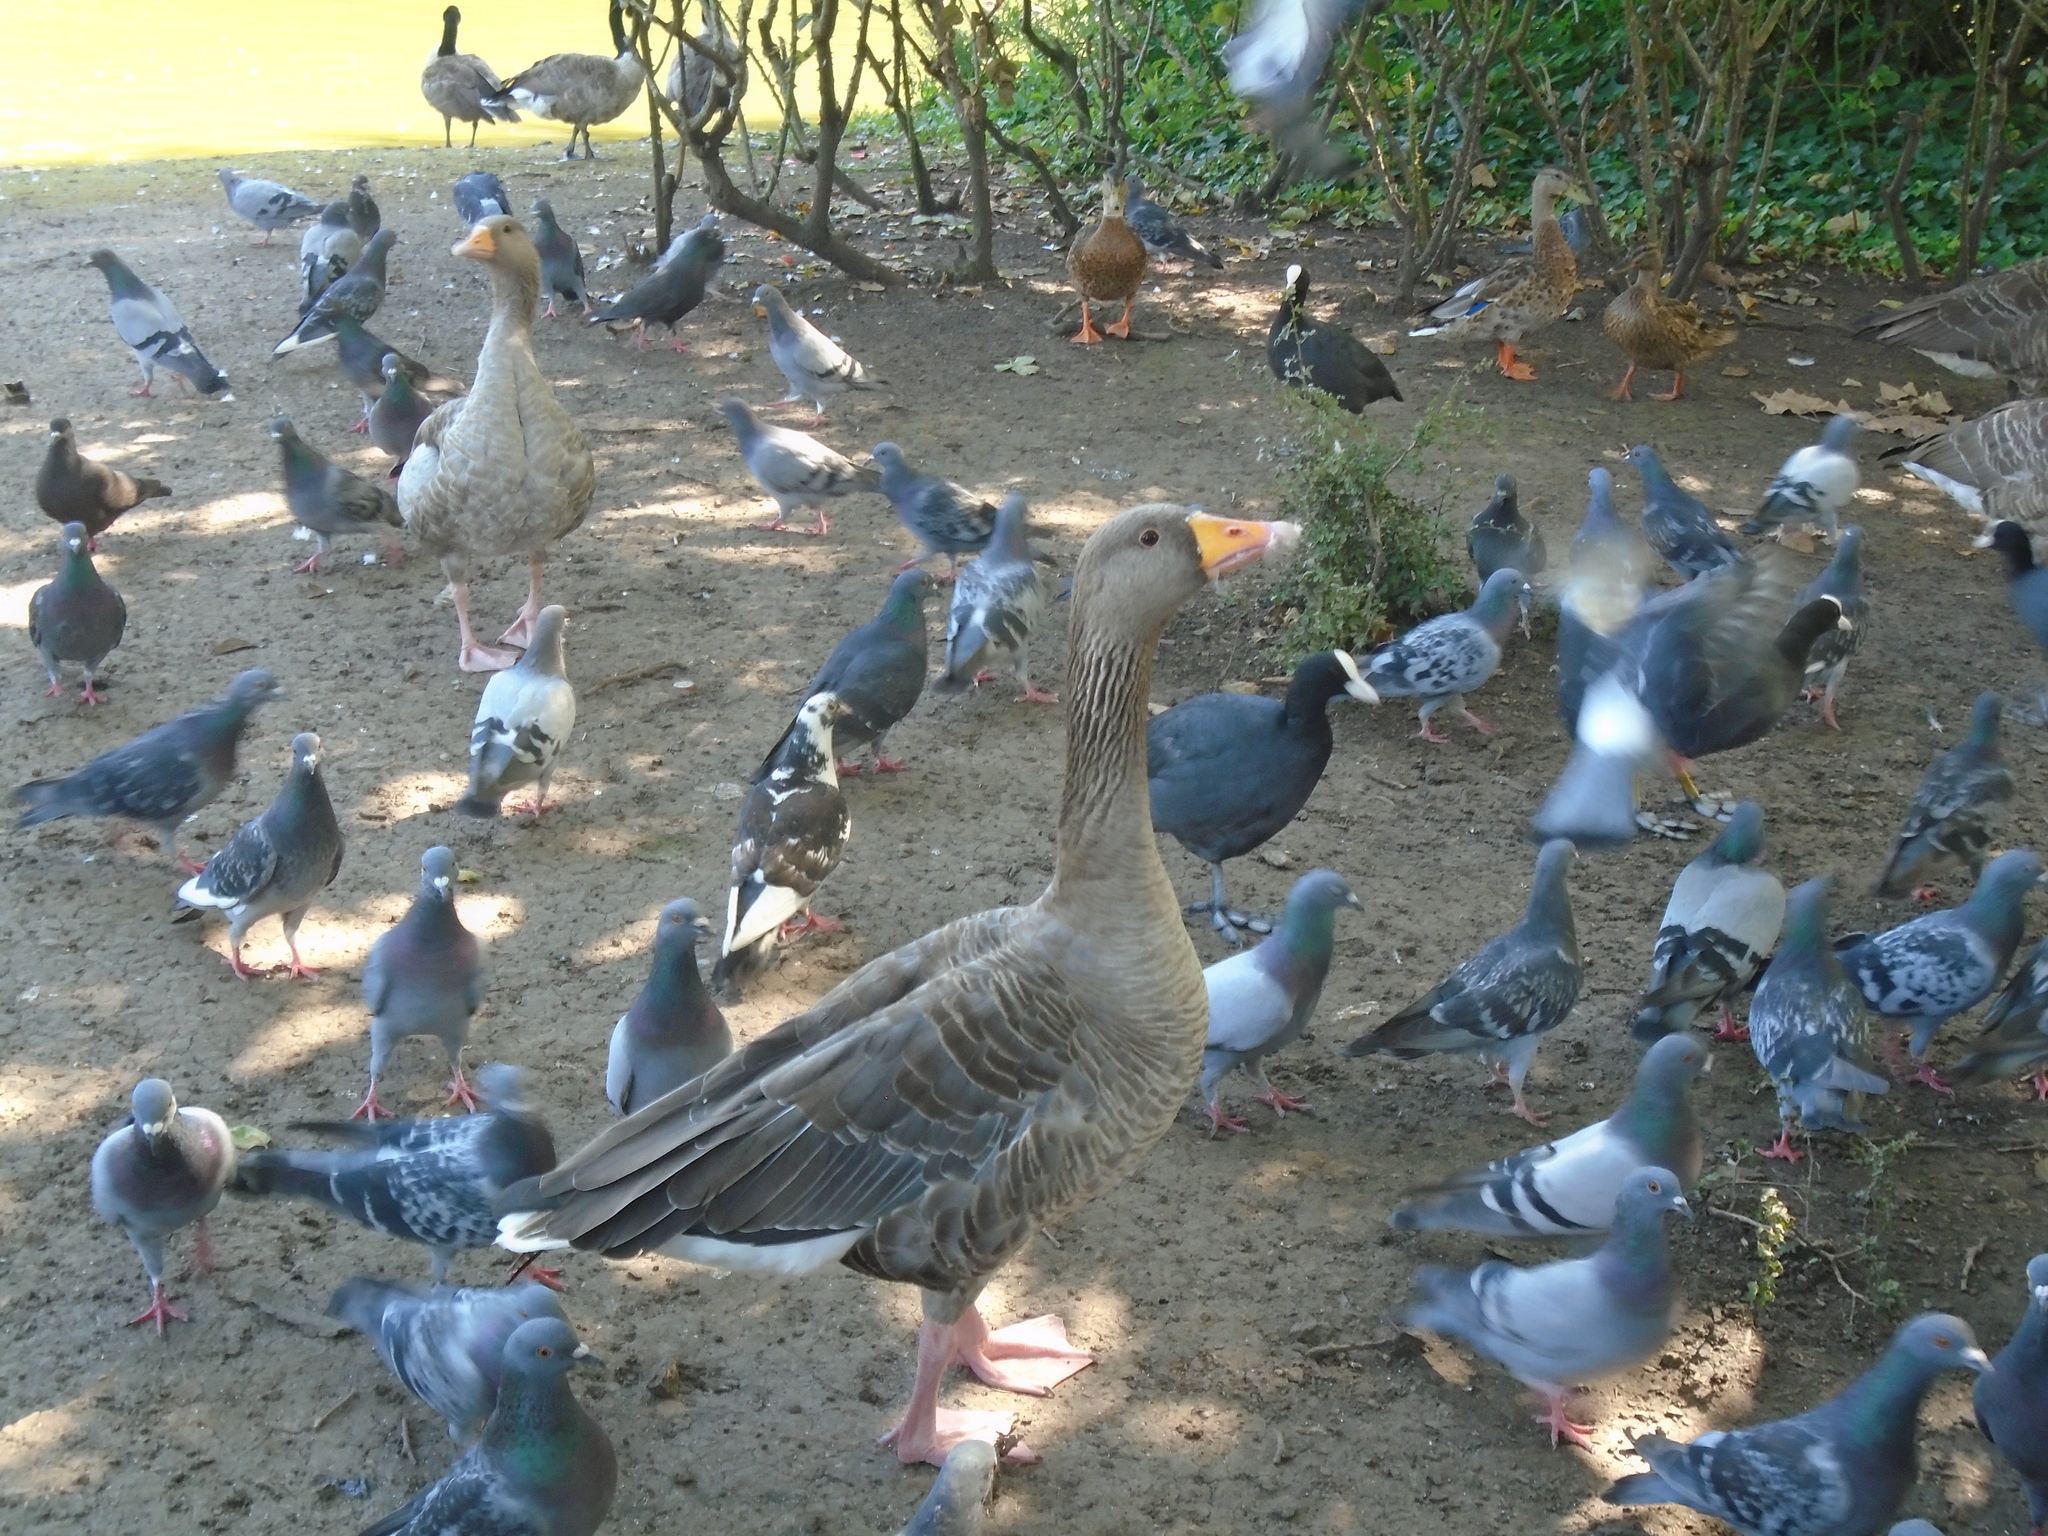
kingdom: Animalia
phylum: Chordata
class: Aves
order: Anseriformes
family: Anatidae
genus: Anser
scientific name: Anser anser
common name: Greylag goose
